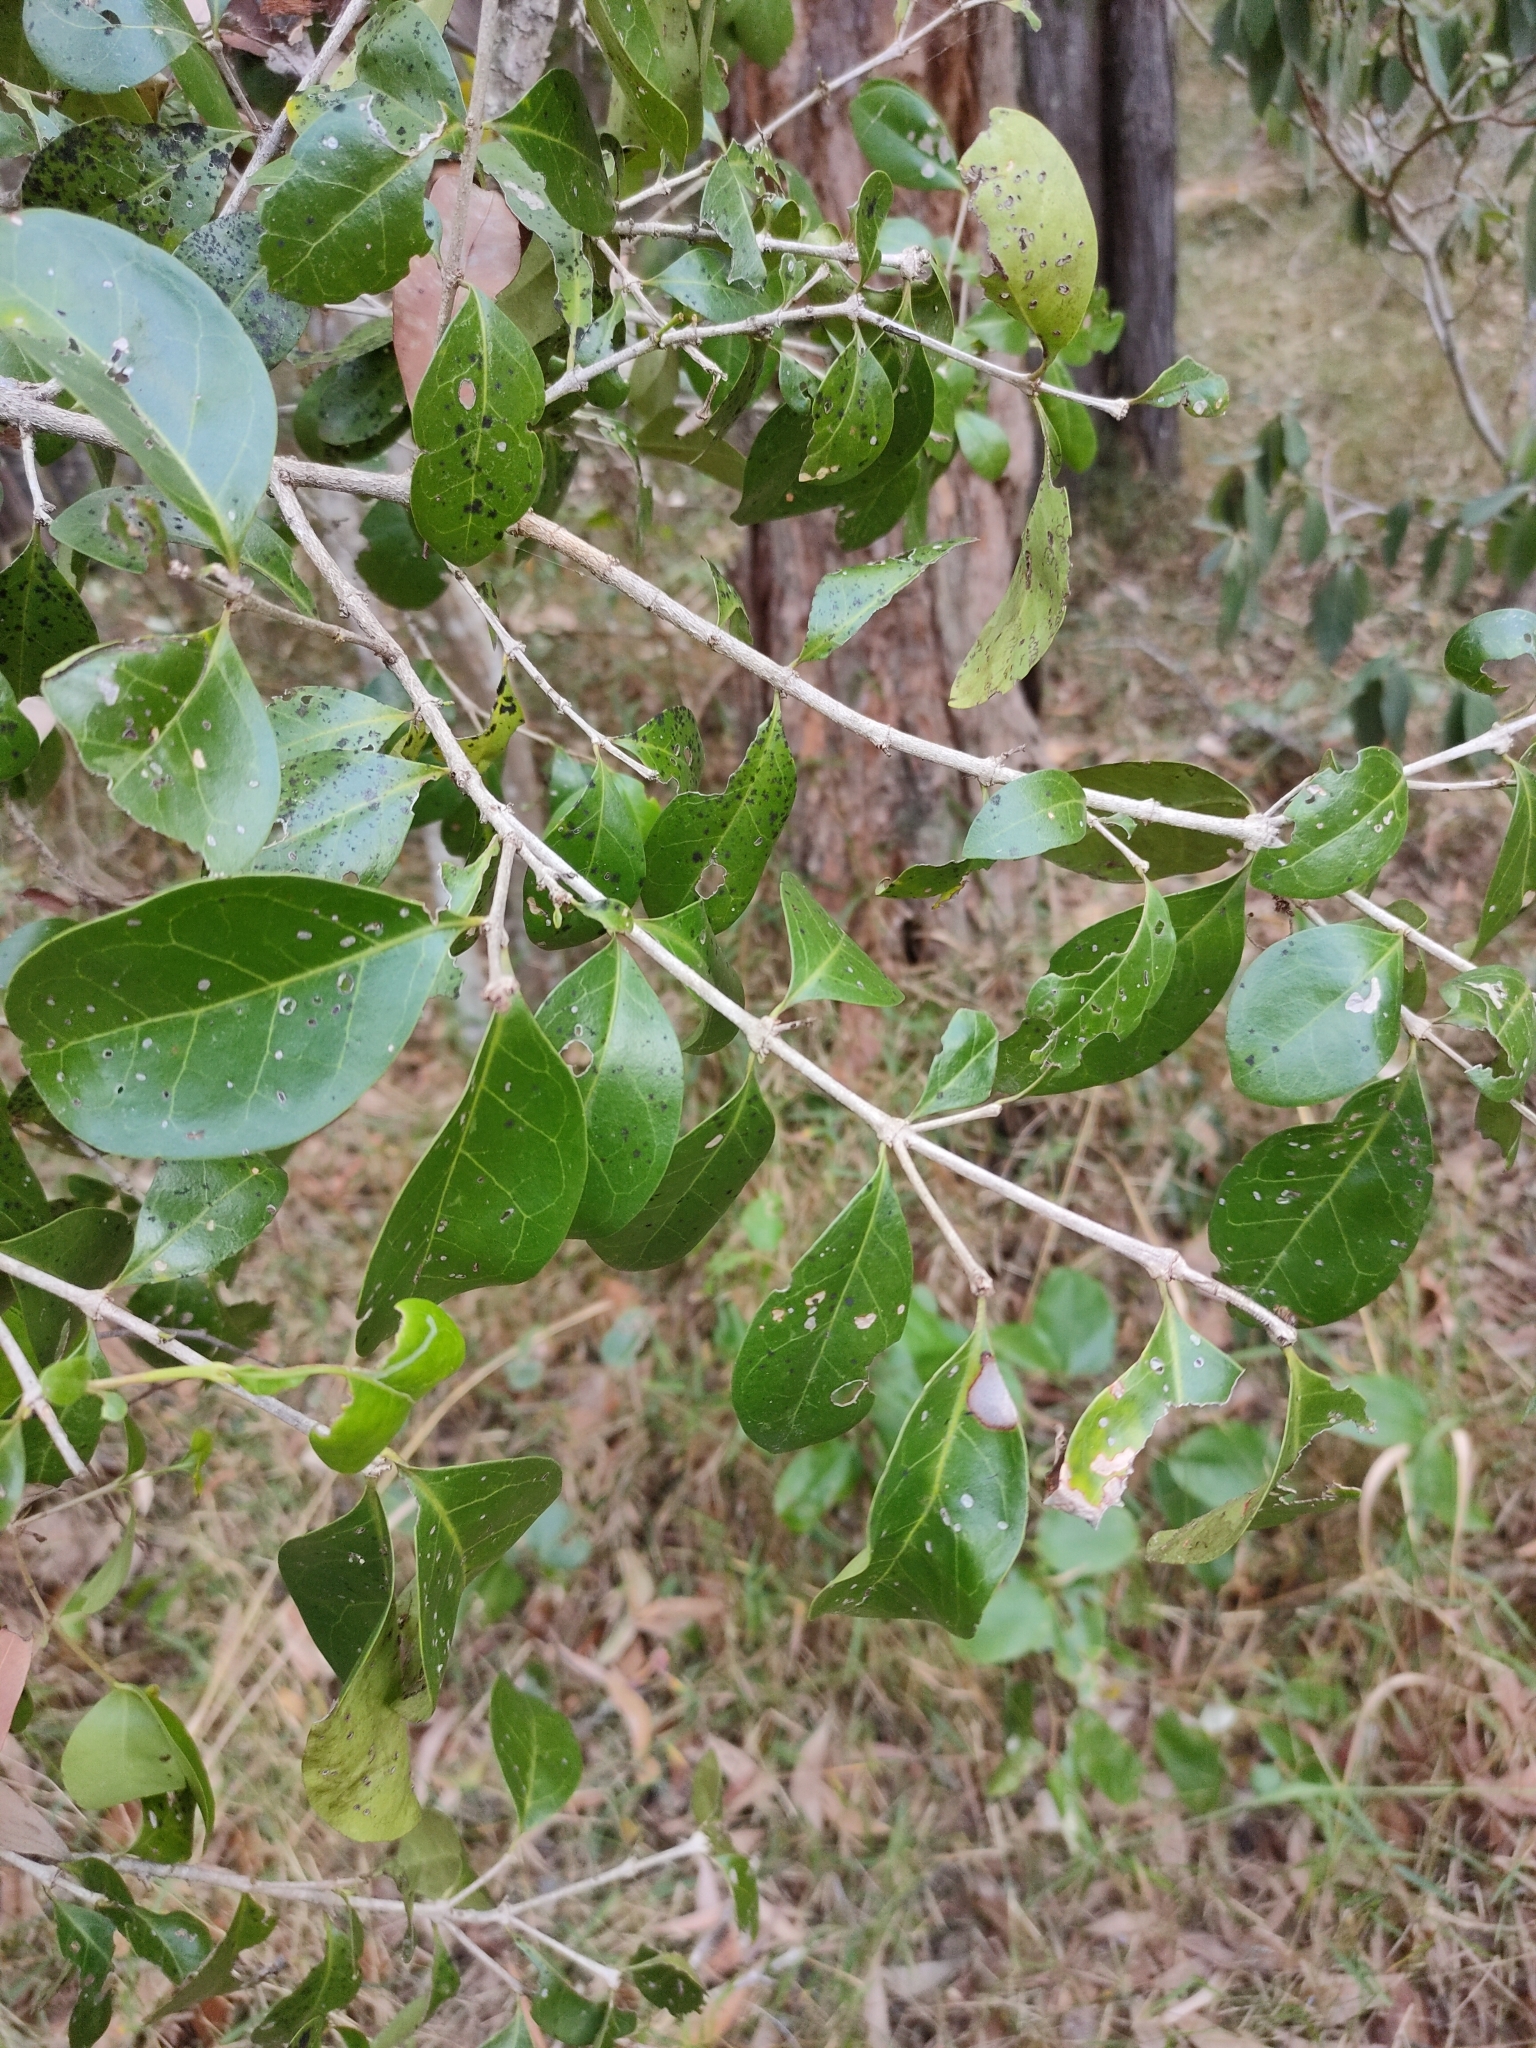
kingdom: Plantae
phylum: Tracheophyta
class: Magnoliopsida
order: Gentianales
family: Rubiaceae
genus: Cyclophyllum
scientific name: Cyclophyllum coprosmoides
